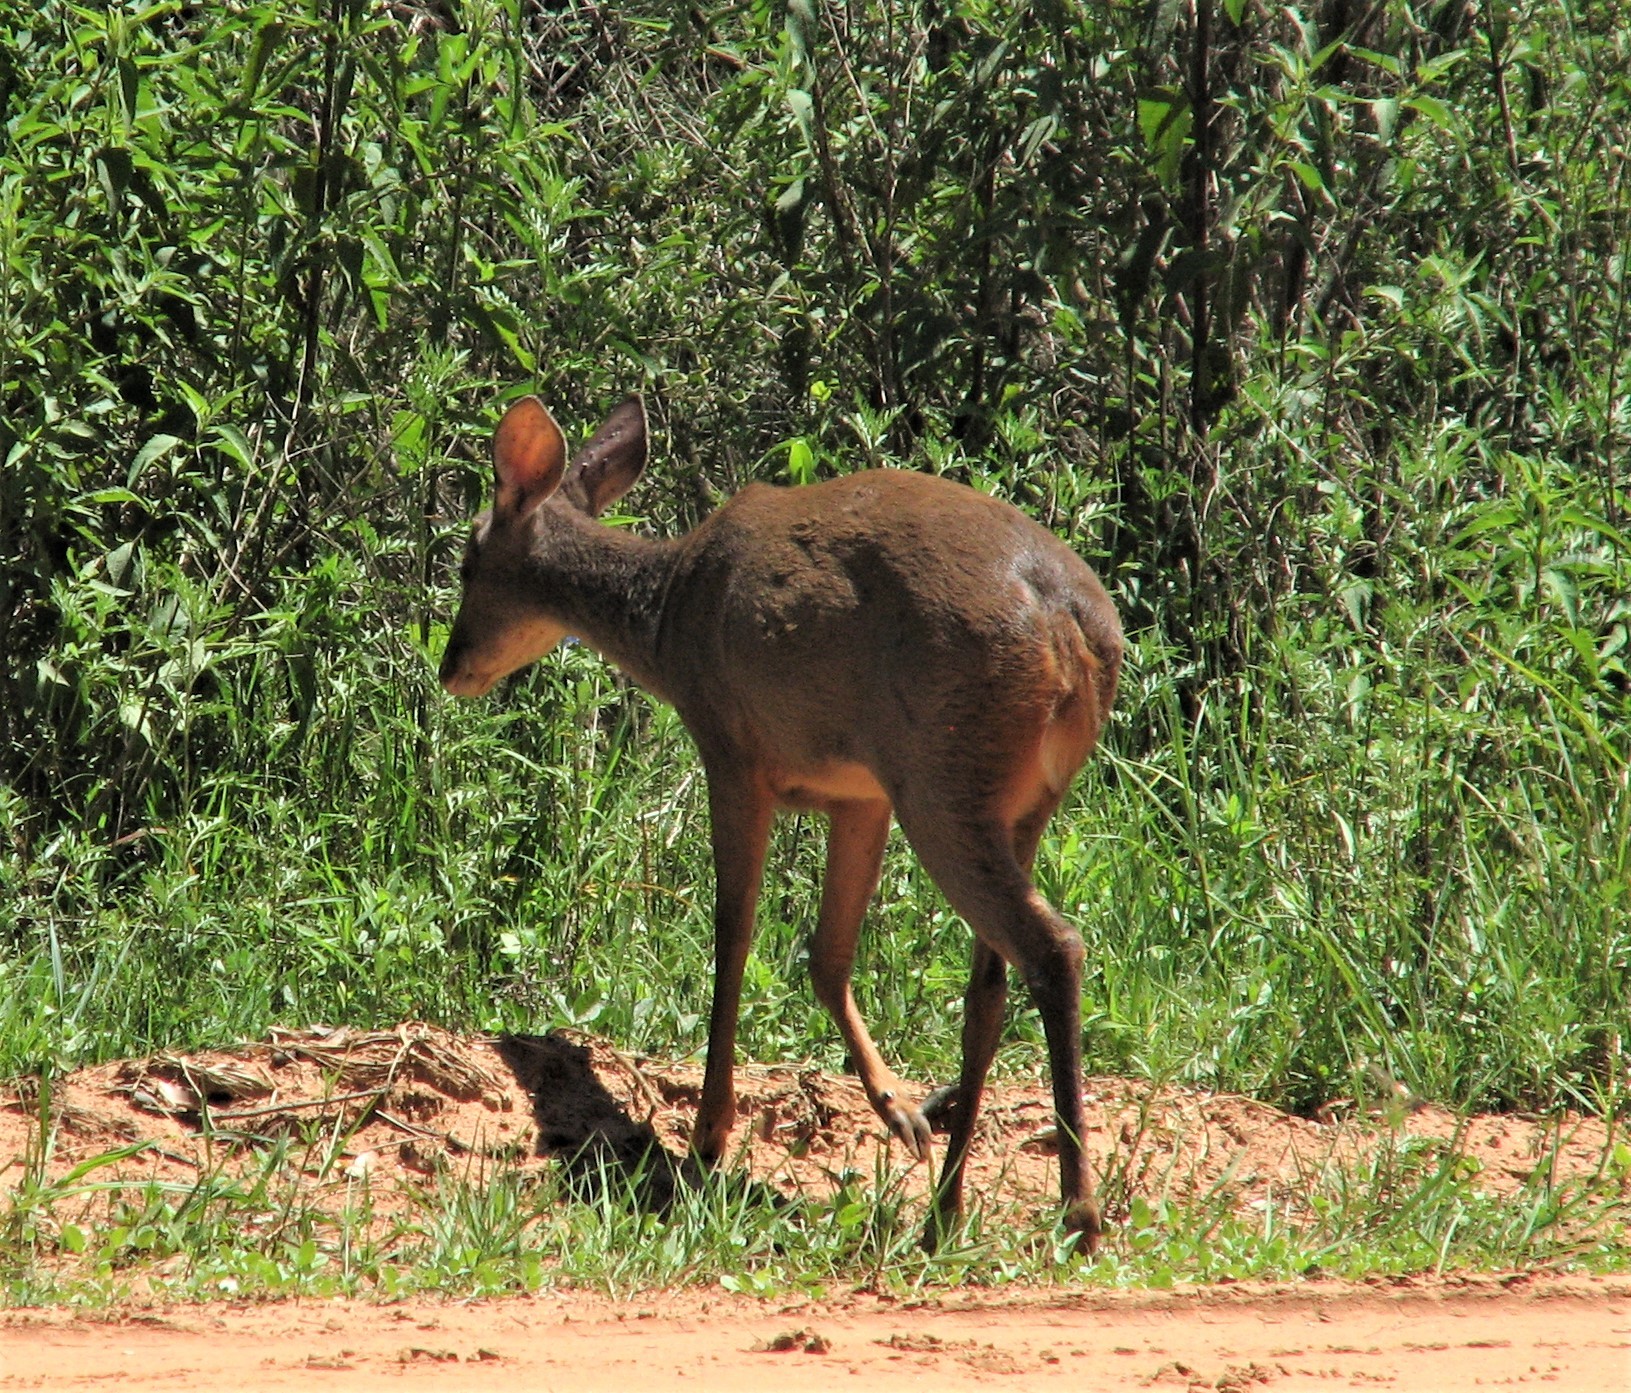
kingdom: Animalia
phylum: Chordata
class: Mammalia
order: Artiodactyla
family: Cervidae
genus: Blastocerus
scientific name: Blastocerus dichotomus
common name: Marsh deer
